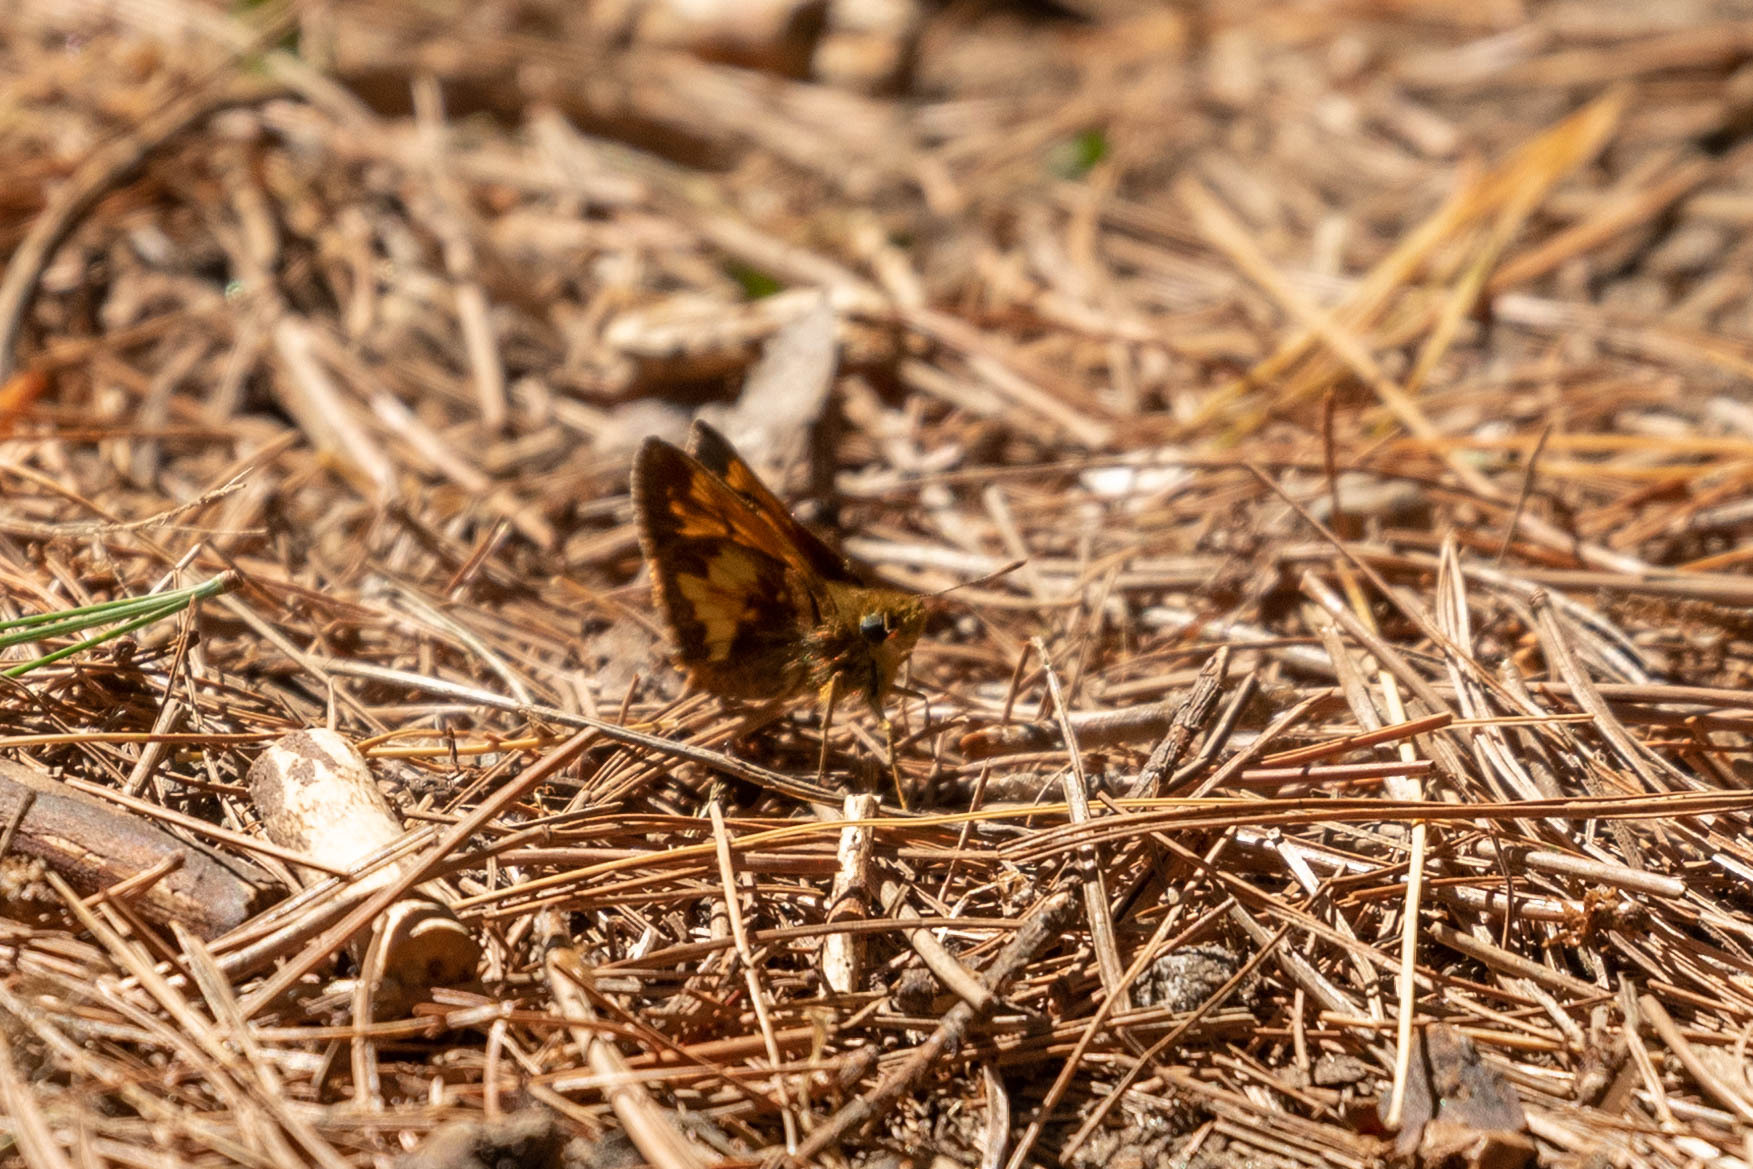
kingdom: Animalia
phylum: Arthropoda
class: Insecta
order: Lepidoptera
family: Hesperiidae
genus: Lon
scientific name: Lon hobomok
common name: Hobomok skipper
